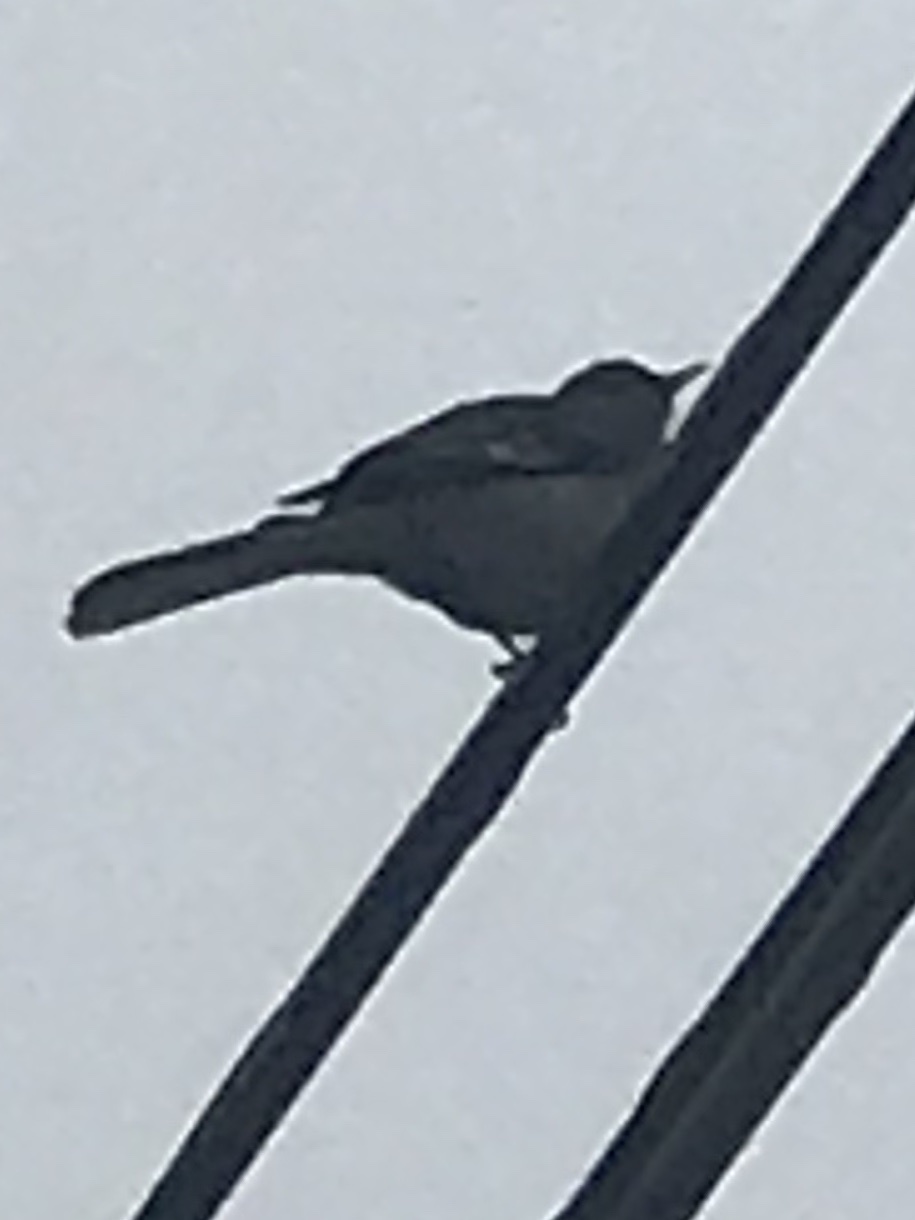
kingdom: Animalia
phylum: Chordata
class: Aves
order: Passeriformes
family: Mimidae
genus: Mimus
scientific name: Mimus polyglottos
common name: Northern mockingbird
